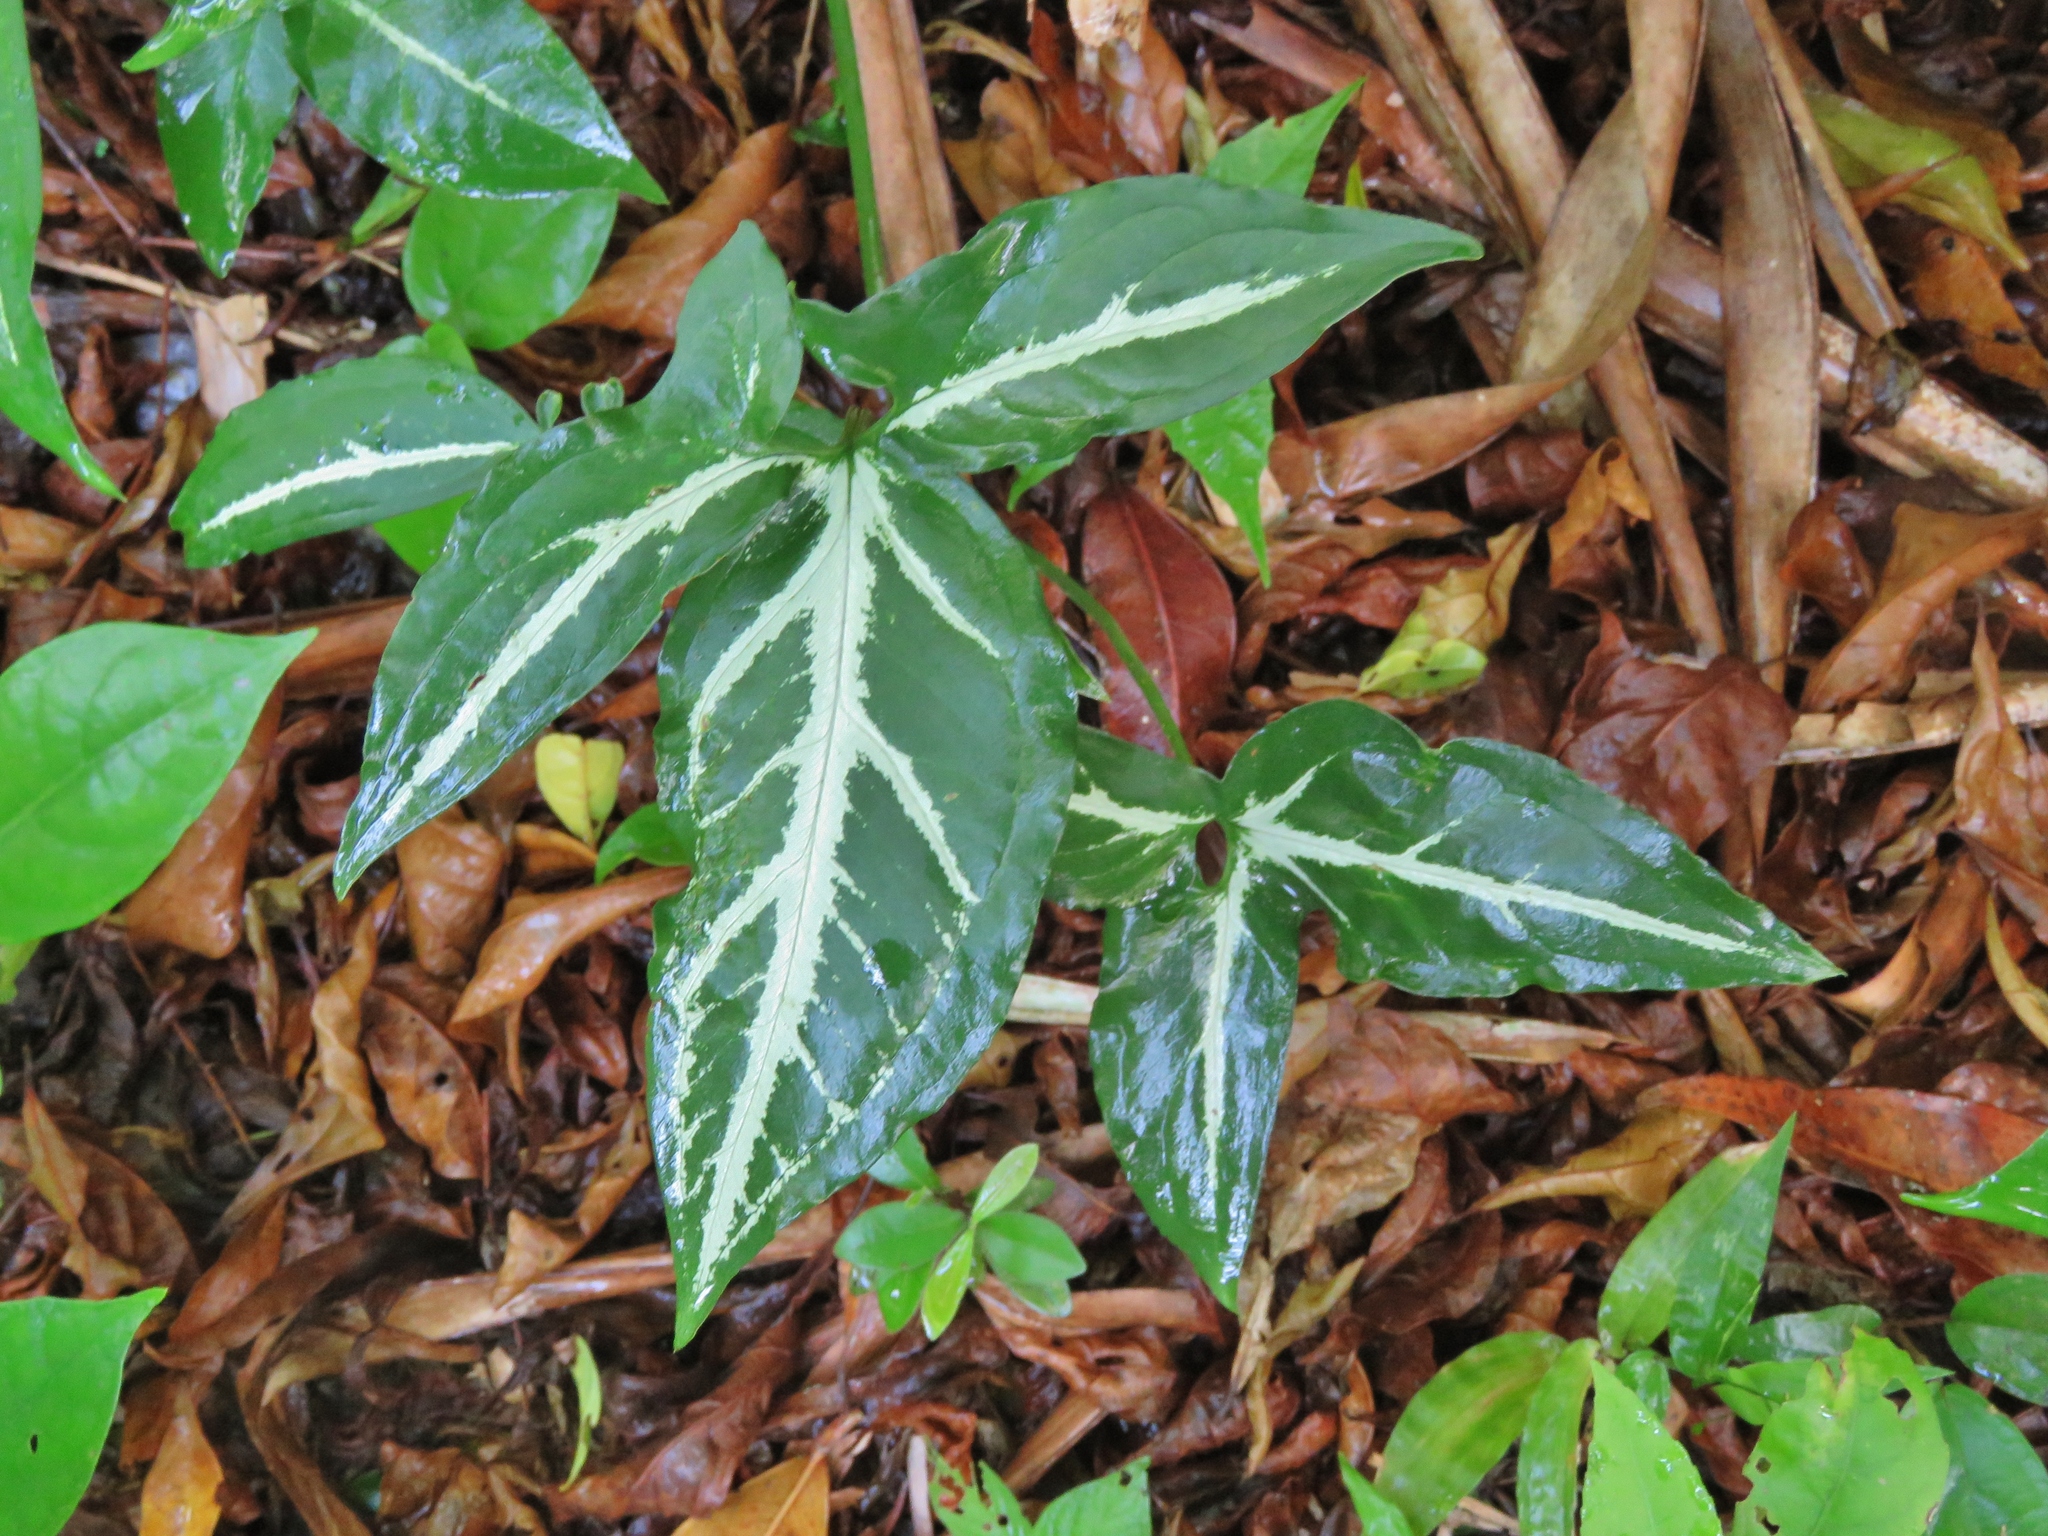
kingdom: Plantae
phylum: Tracheophyta
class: Liliopsida
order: Alismatales
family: Araceae
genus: Syngonium
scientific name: Syngonium angustatum
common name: Fivefingers
